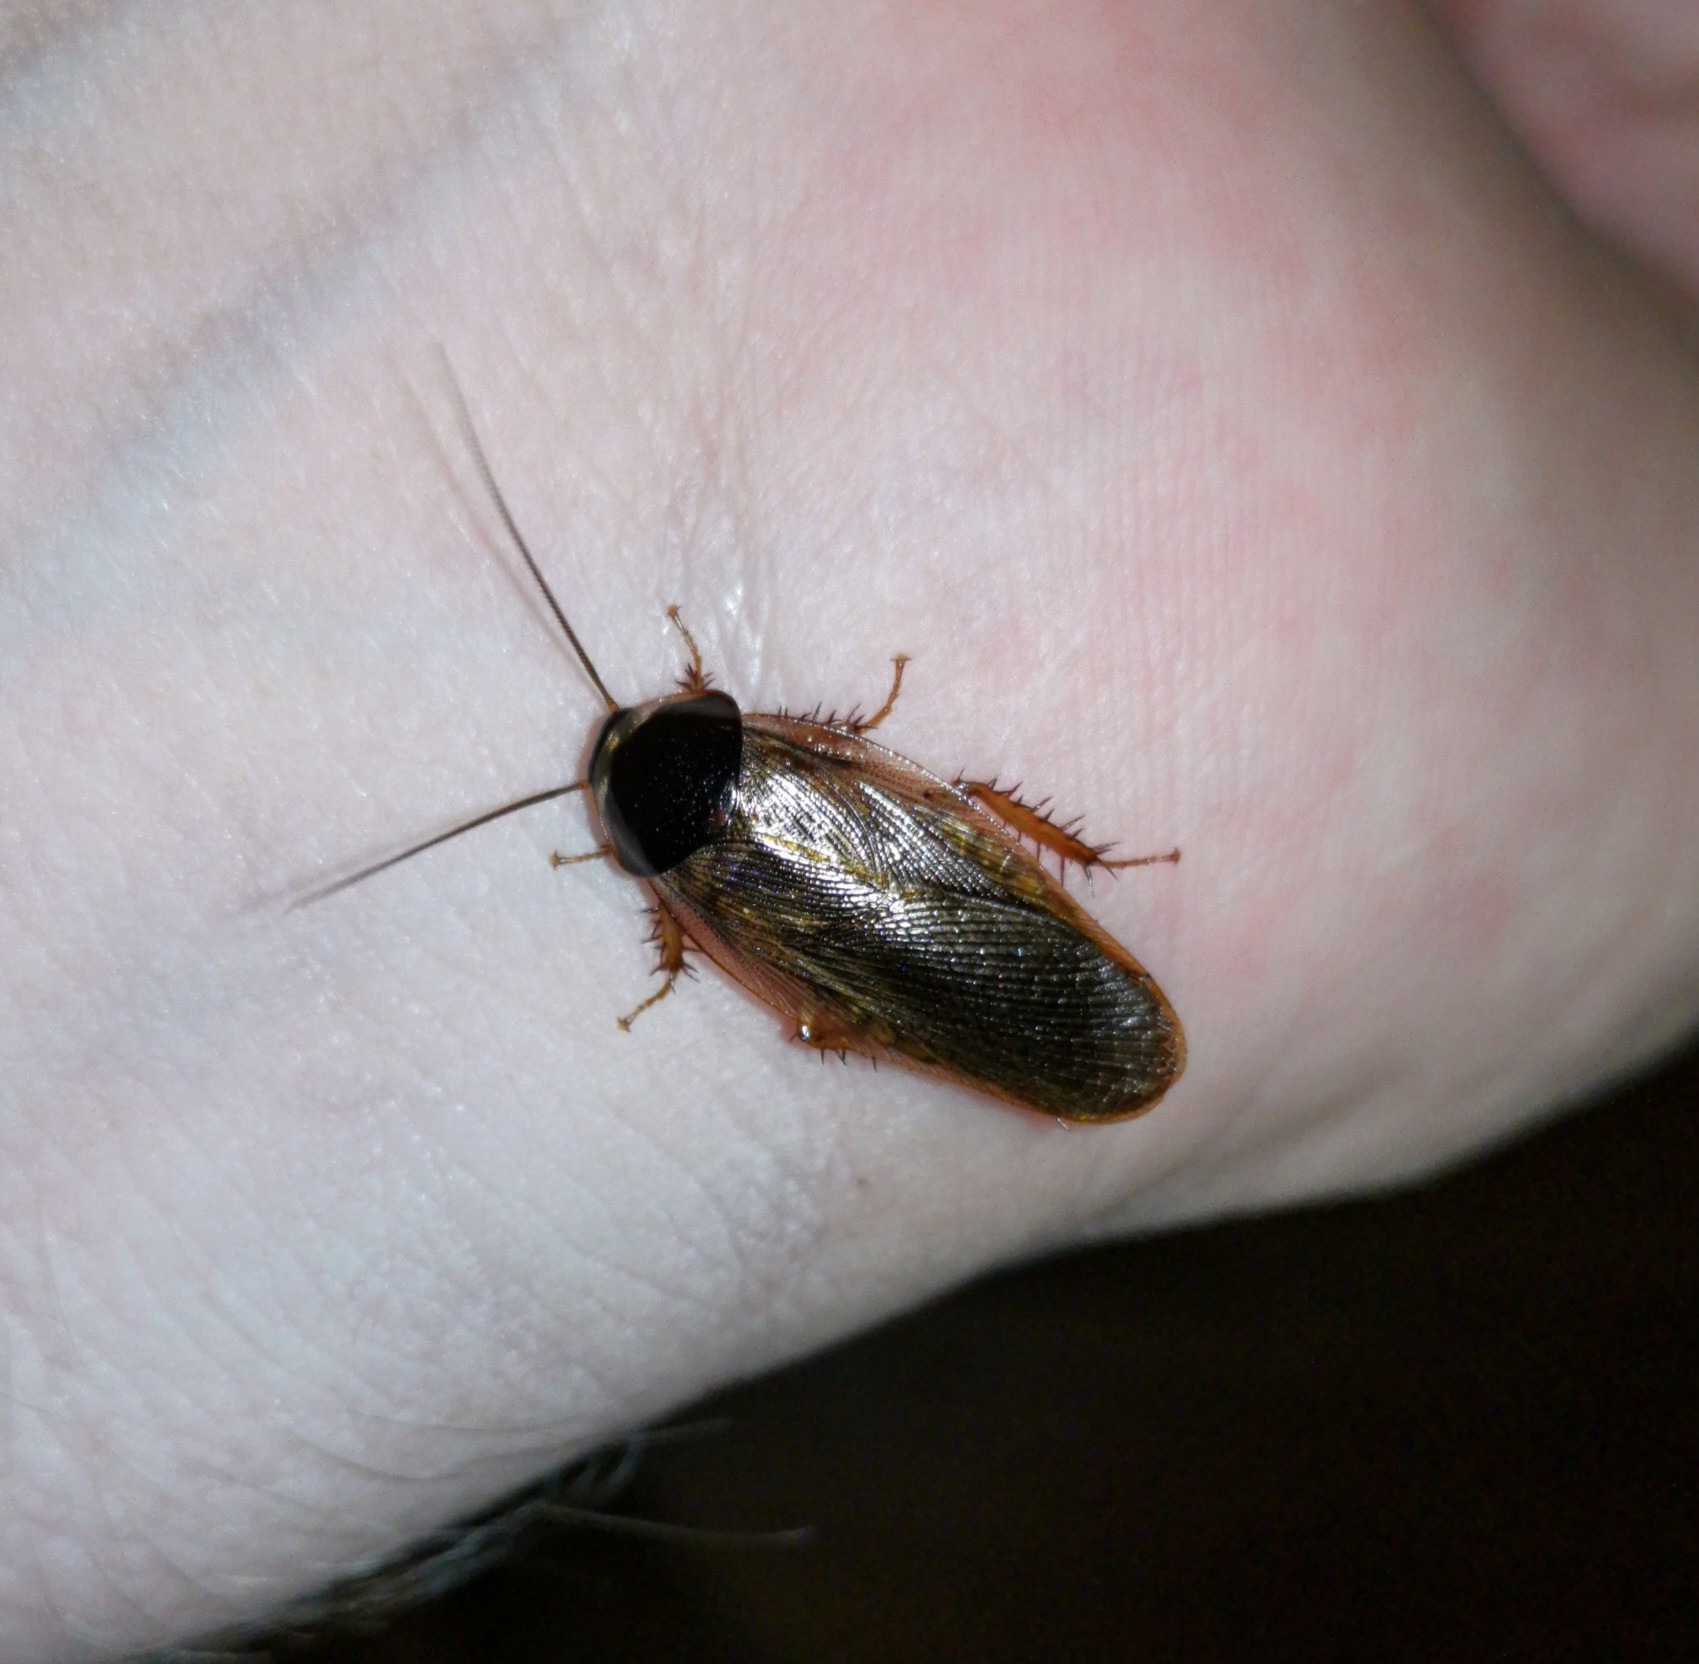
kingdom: Animalia
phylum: Arthropoda
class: Insecta
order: Blattodea
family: Blaberidae
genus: Pycnoscelus
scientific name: Pycnoscelus indicus
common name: Burrowing cockroach
